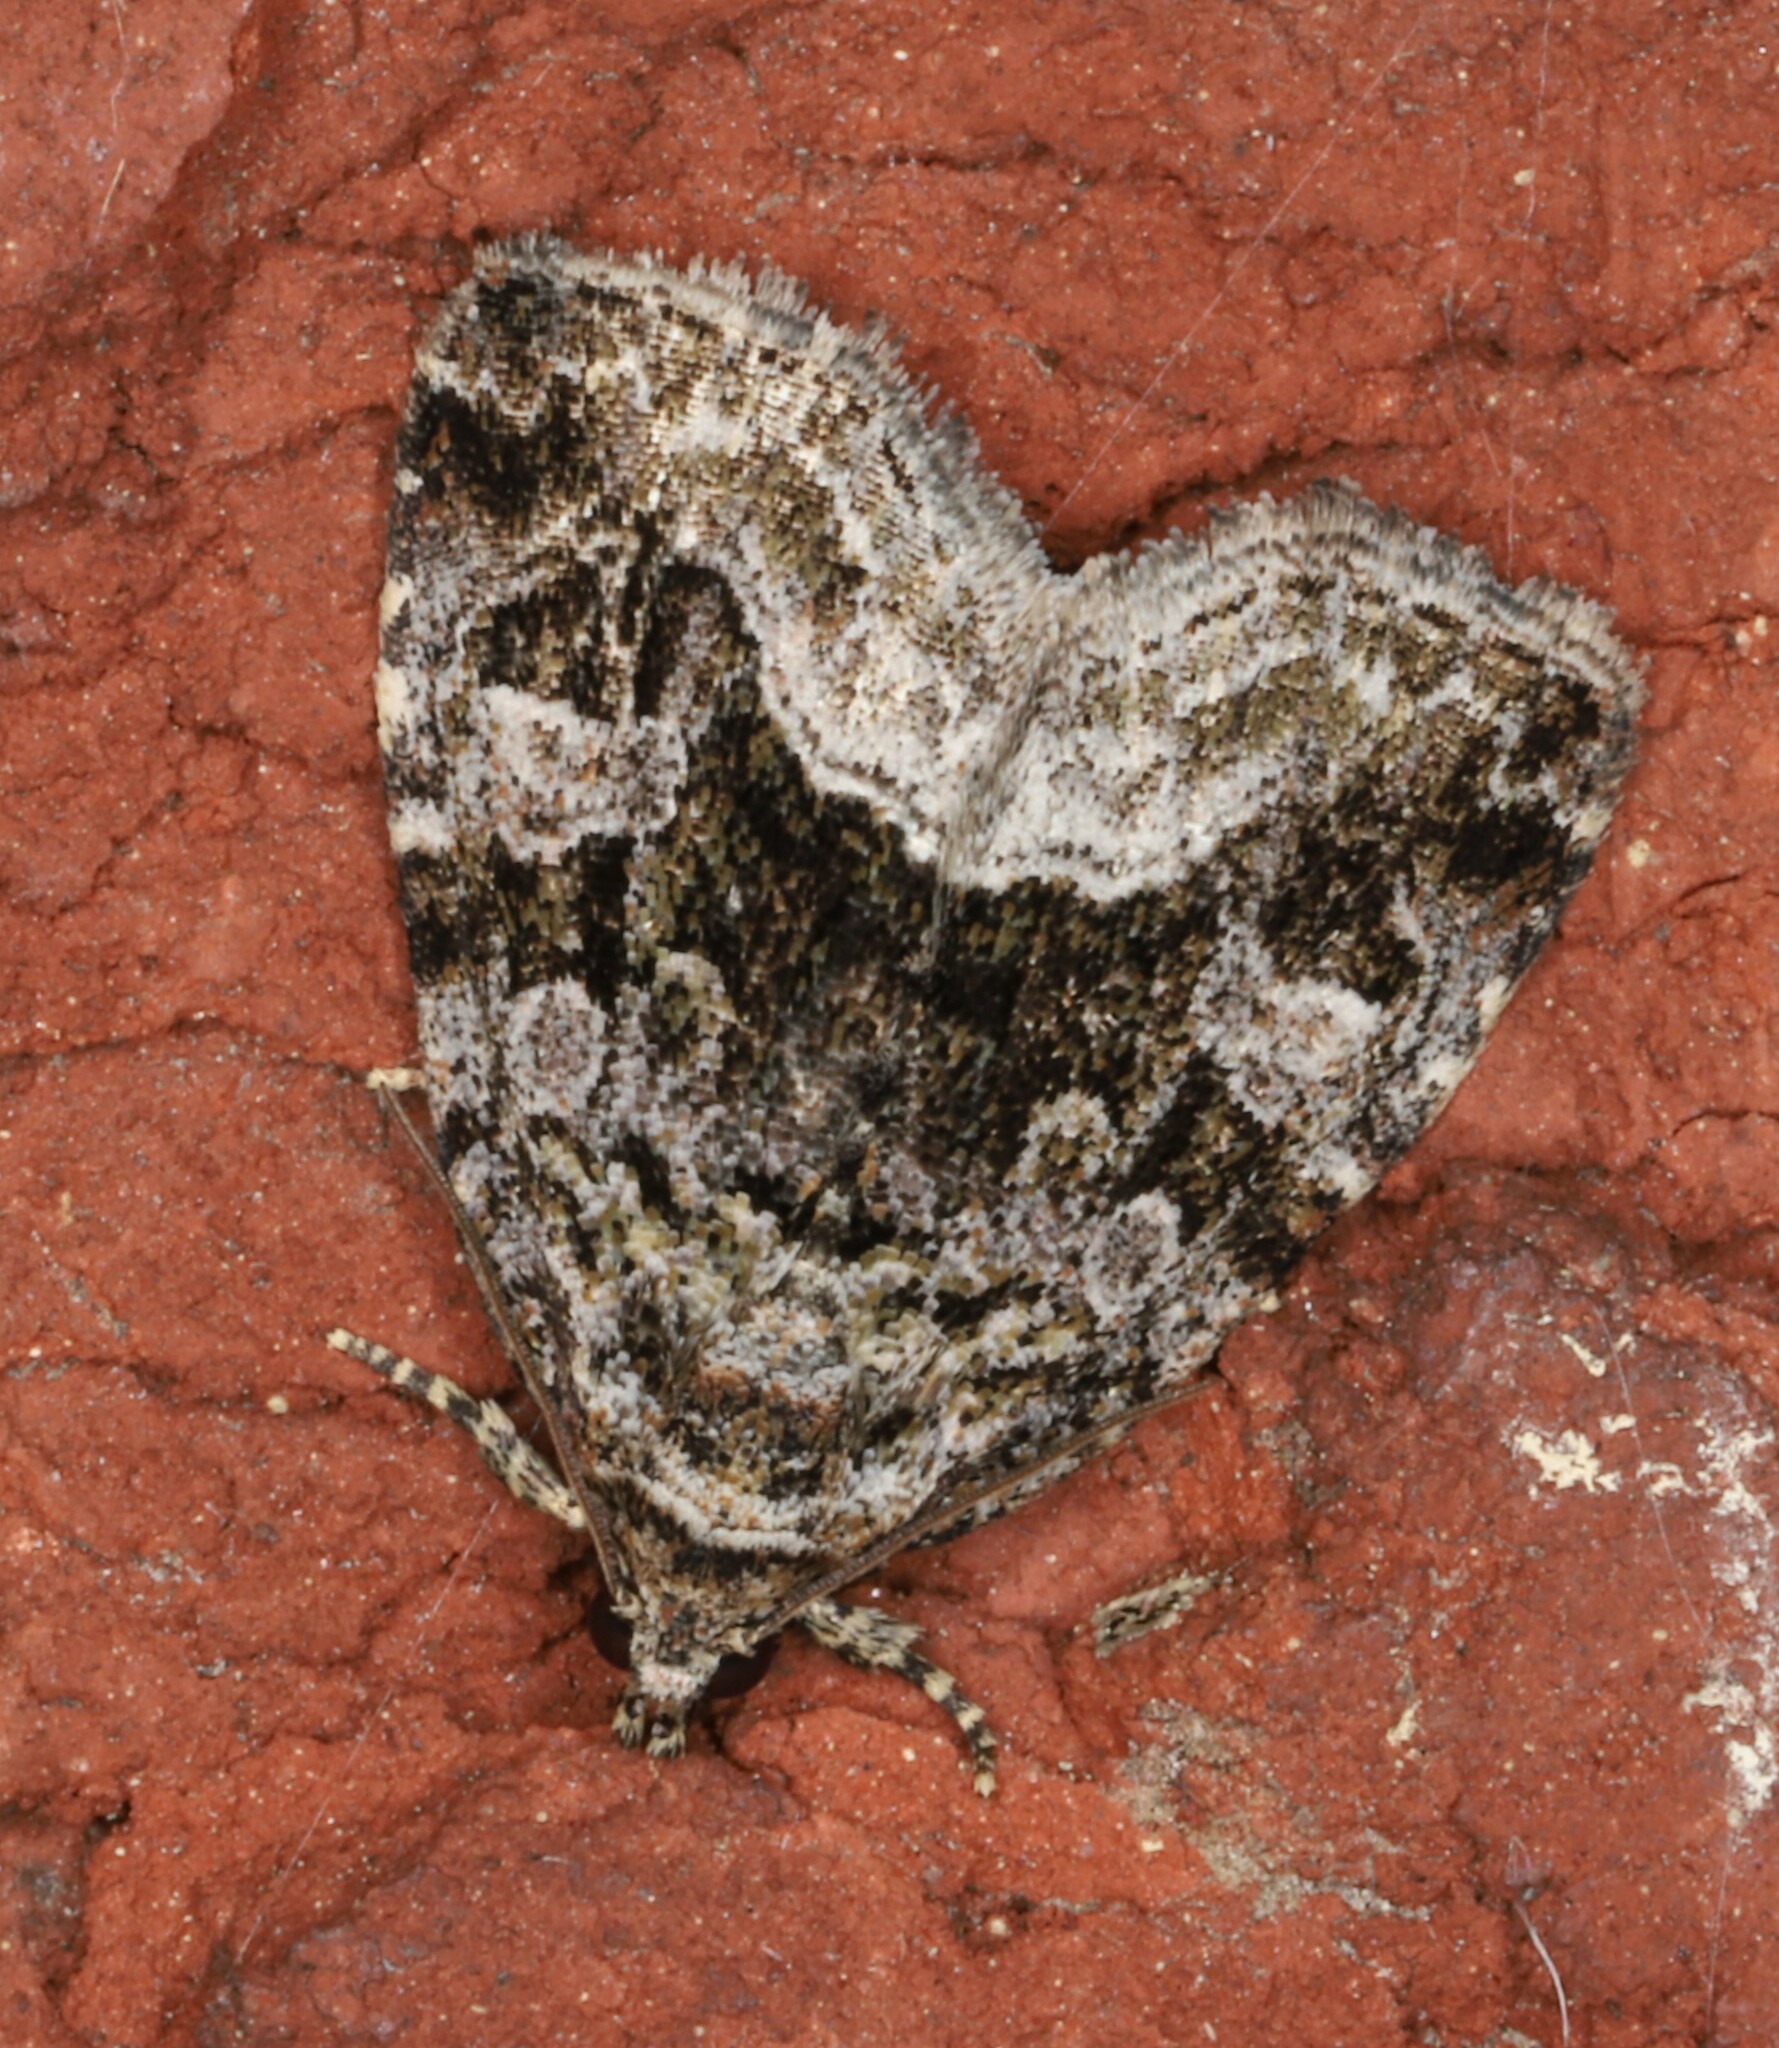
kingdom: Animalia
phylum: Arthropoda
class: Insecta
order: Lepidoptera
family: Noctuidae
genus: Protodeltote
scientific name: Protodeltote muscosula
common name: Large mossy glyph
